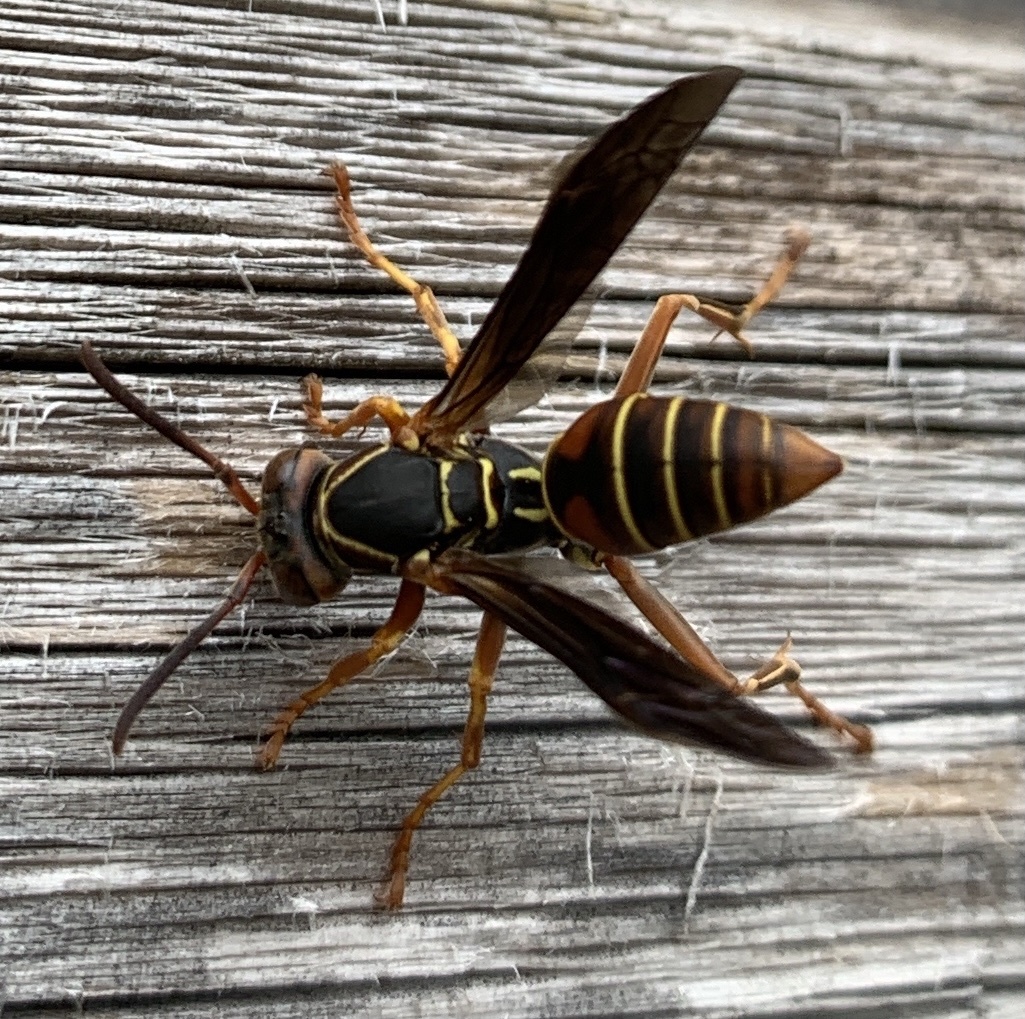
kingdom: Animalia
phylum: Arthropoda
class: Insecta
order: Hymenoptera
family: Eumenidae
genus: Polistes
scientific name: Polistes fuscatus
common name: Dark paper wasp
